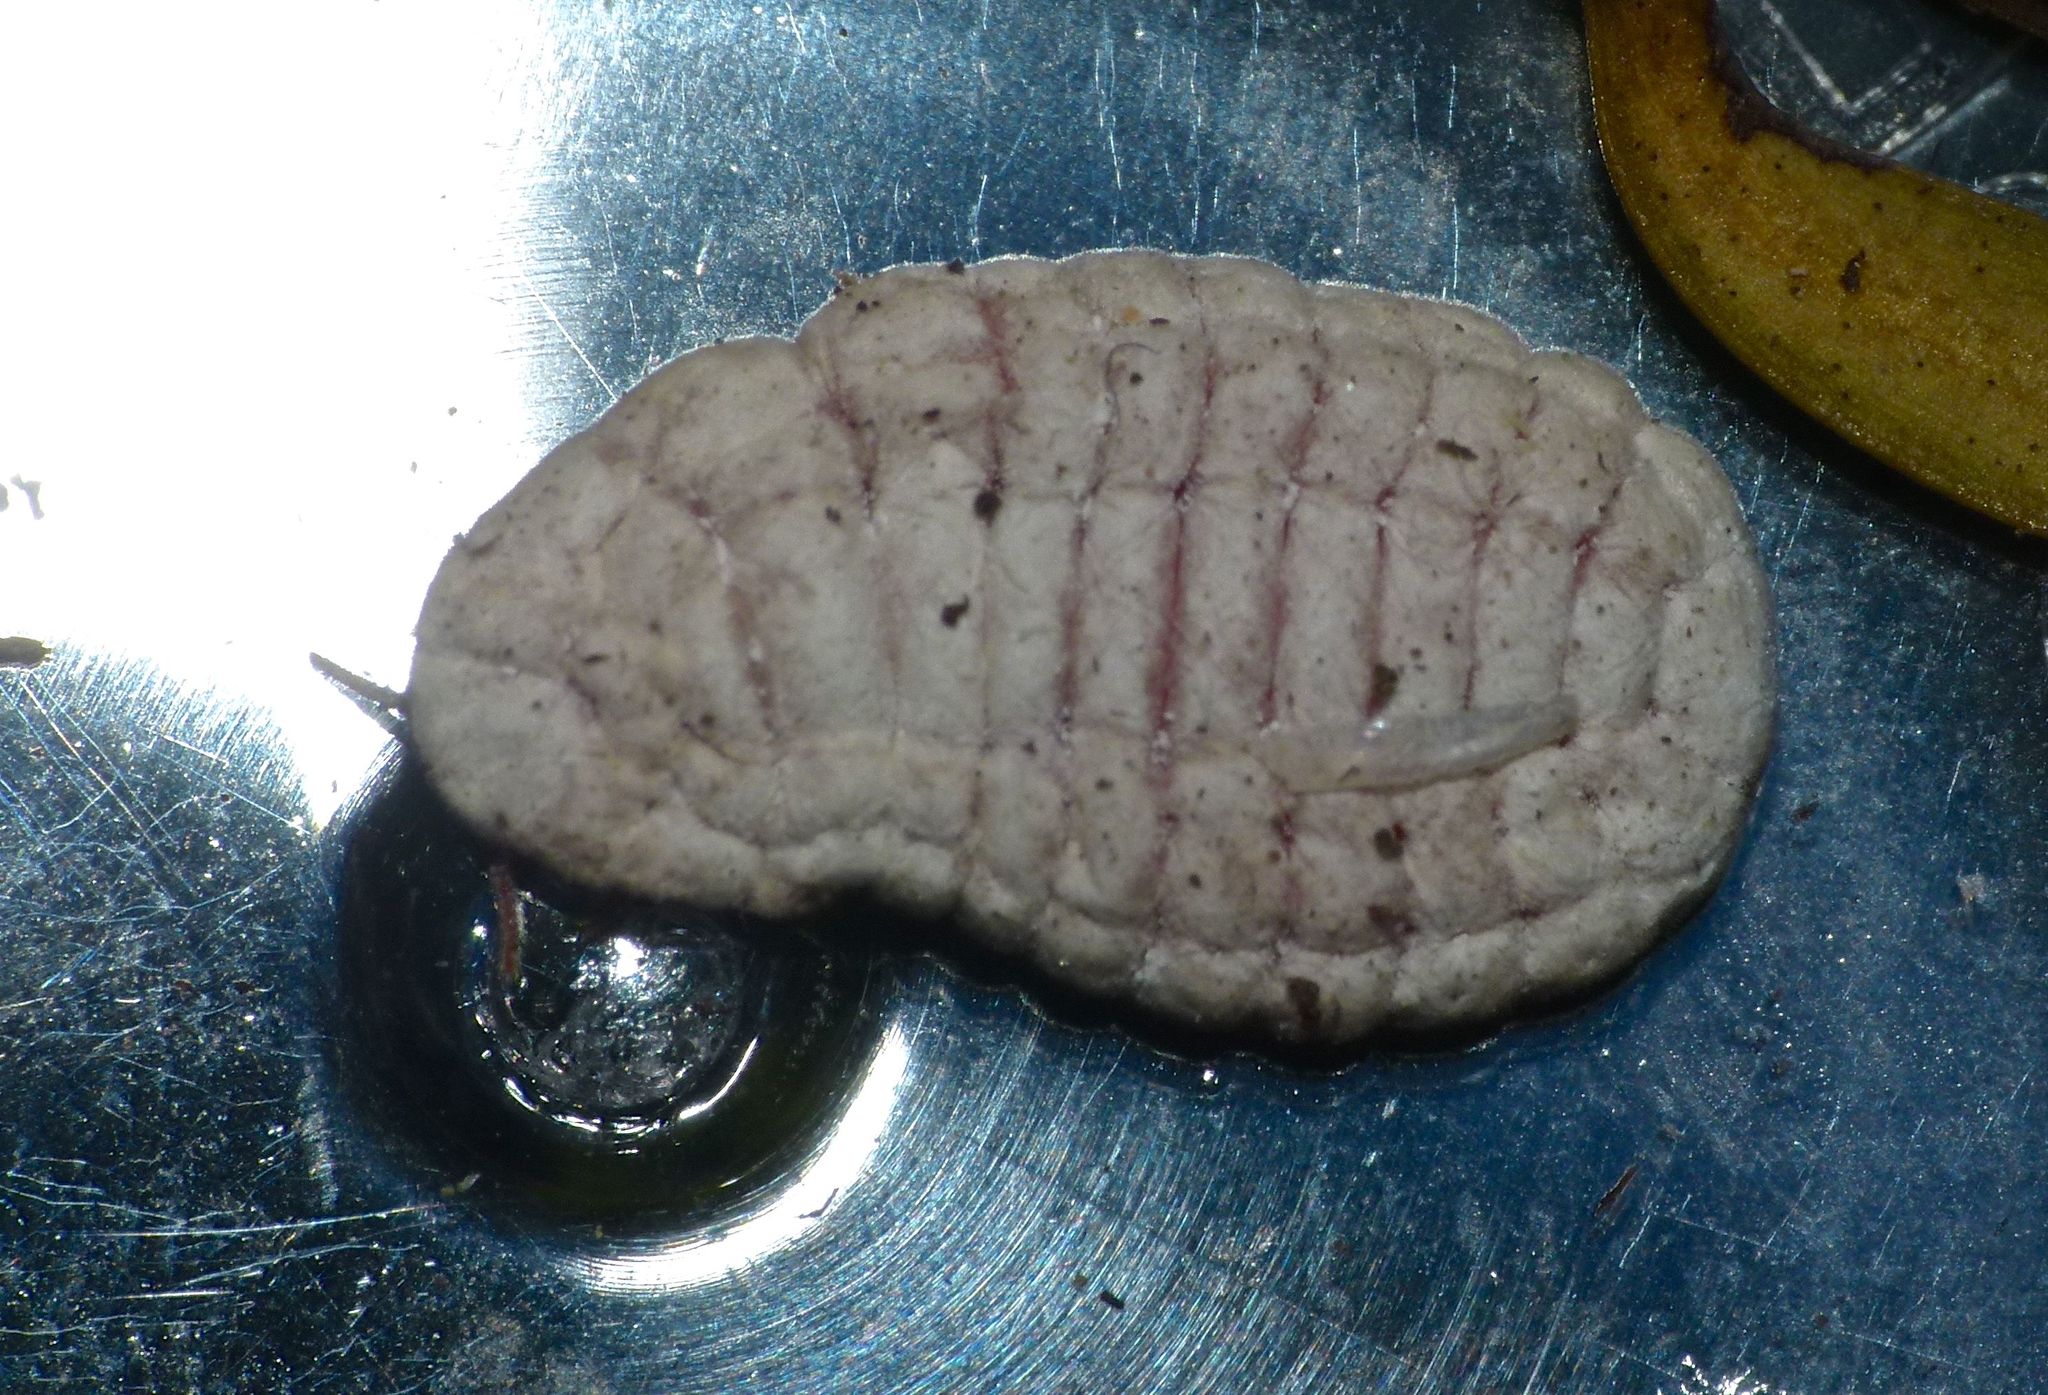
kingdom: Animalia
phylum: Arthropoda
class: Insecta
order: Hemiptera
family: Margarodidae
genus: Coelostomidia
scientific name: Coelostomidia zealandica
